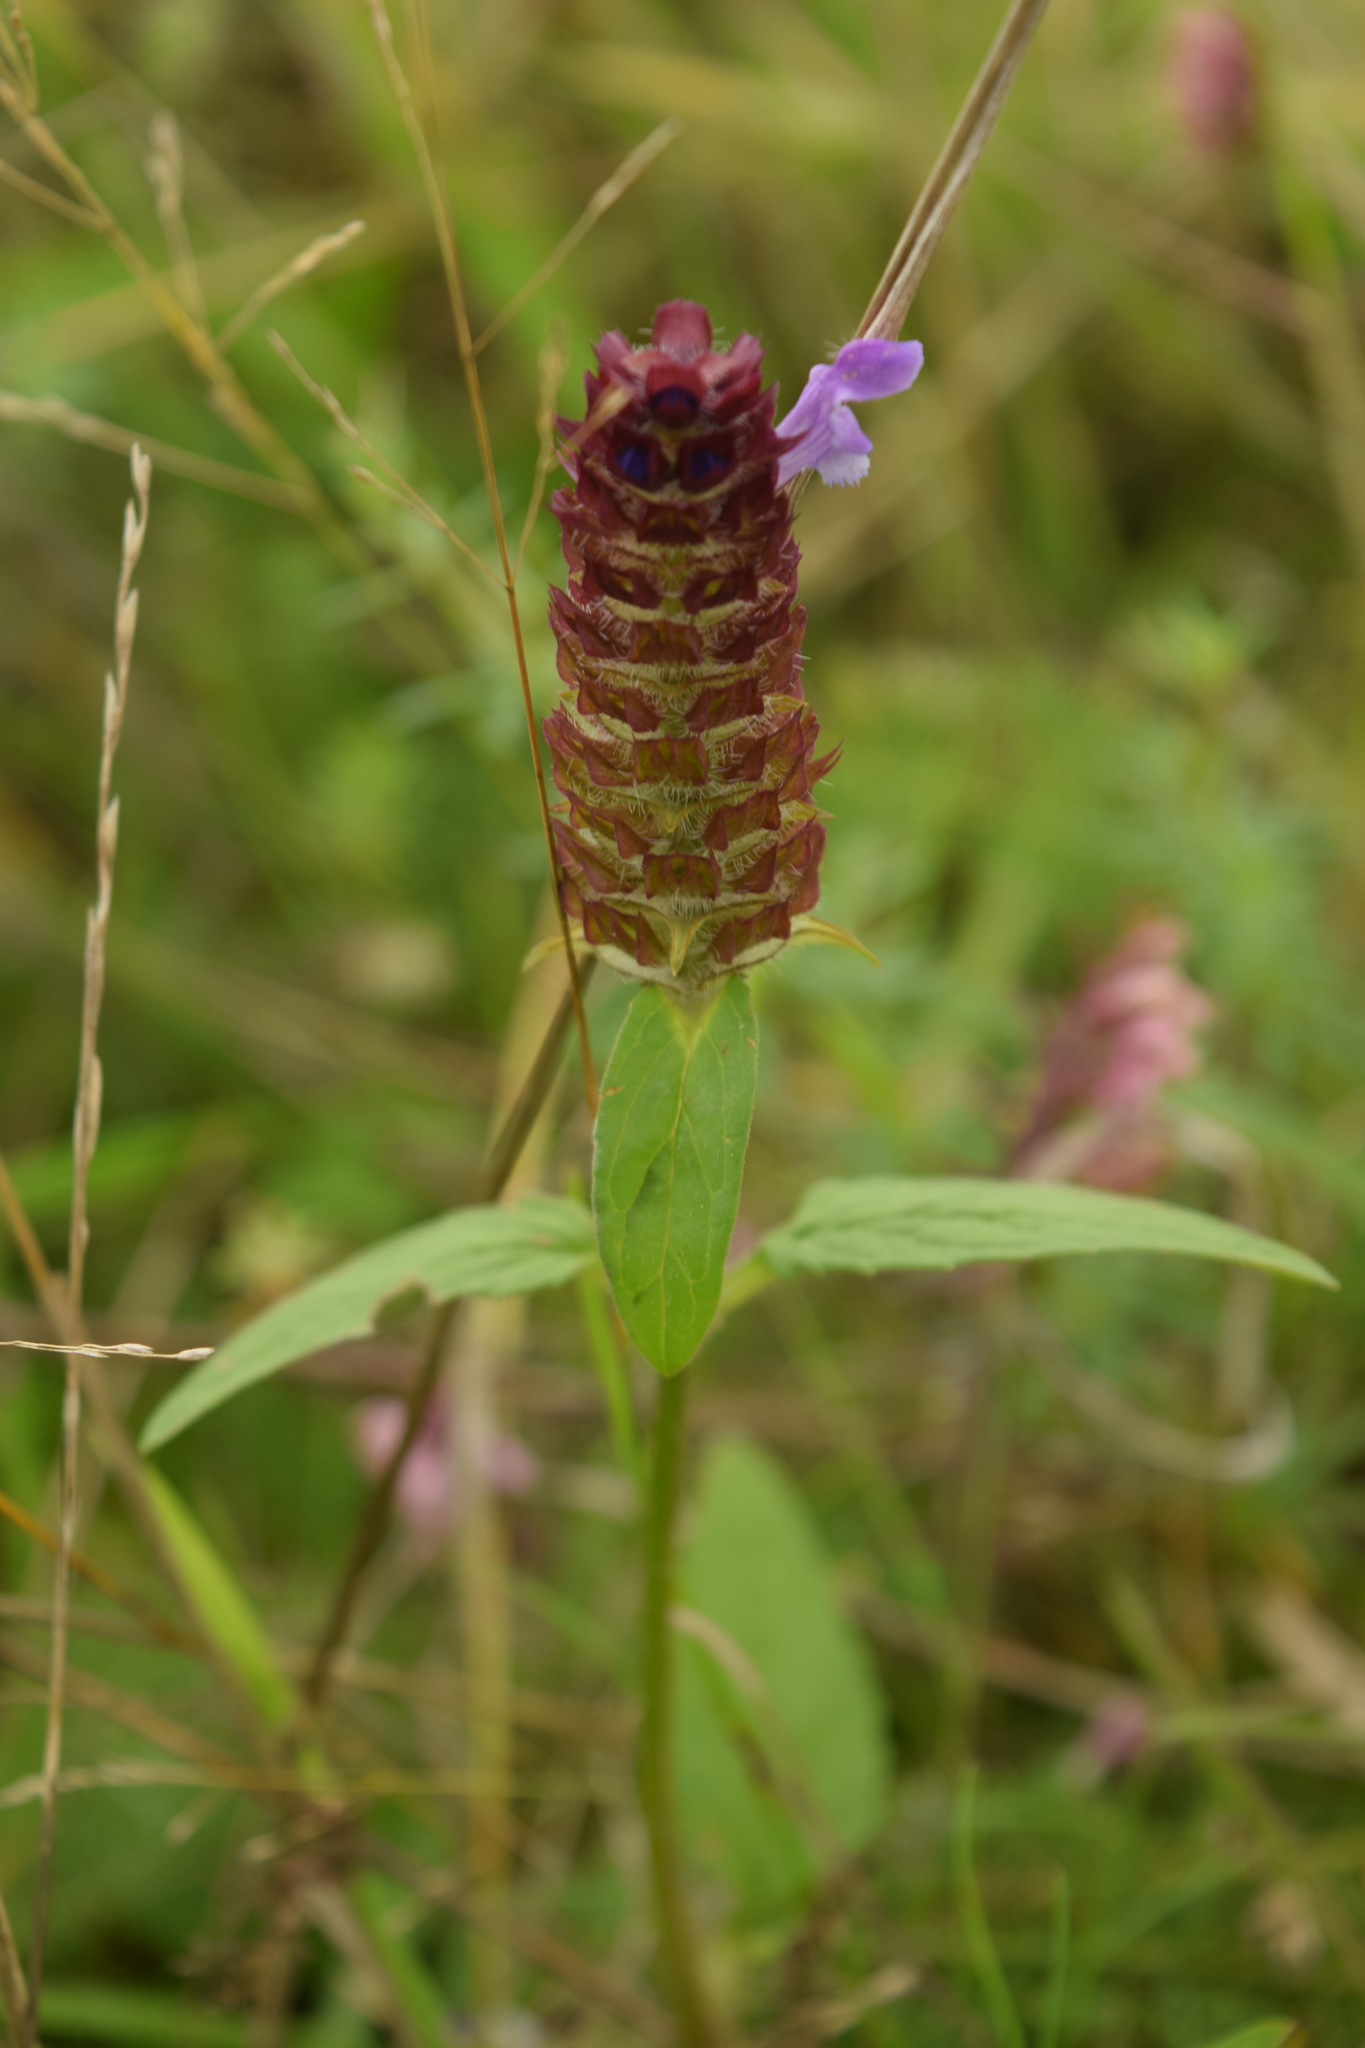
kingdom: Plantae
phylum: Tracheophyta
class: Magnoliopsida
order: Lamiales
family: Lamiaceae
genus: Prunella
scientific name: Prunella vulgaris
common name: Heal-all
